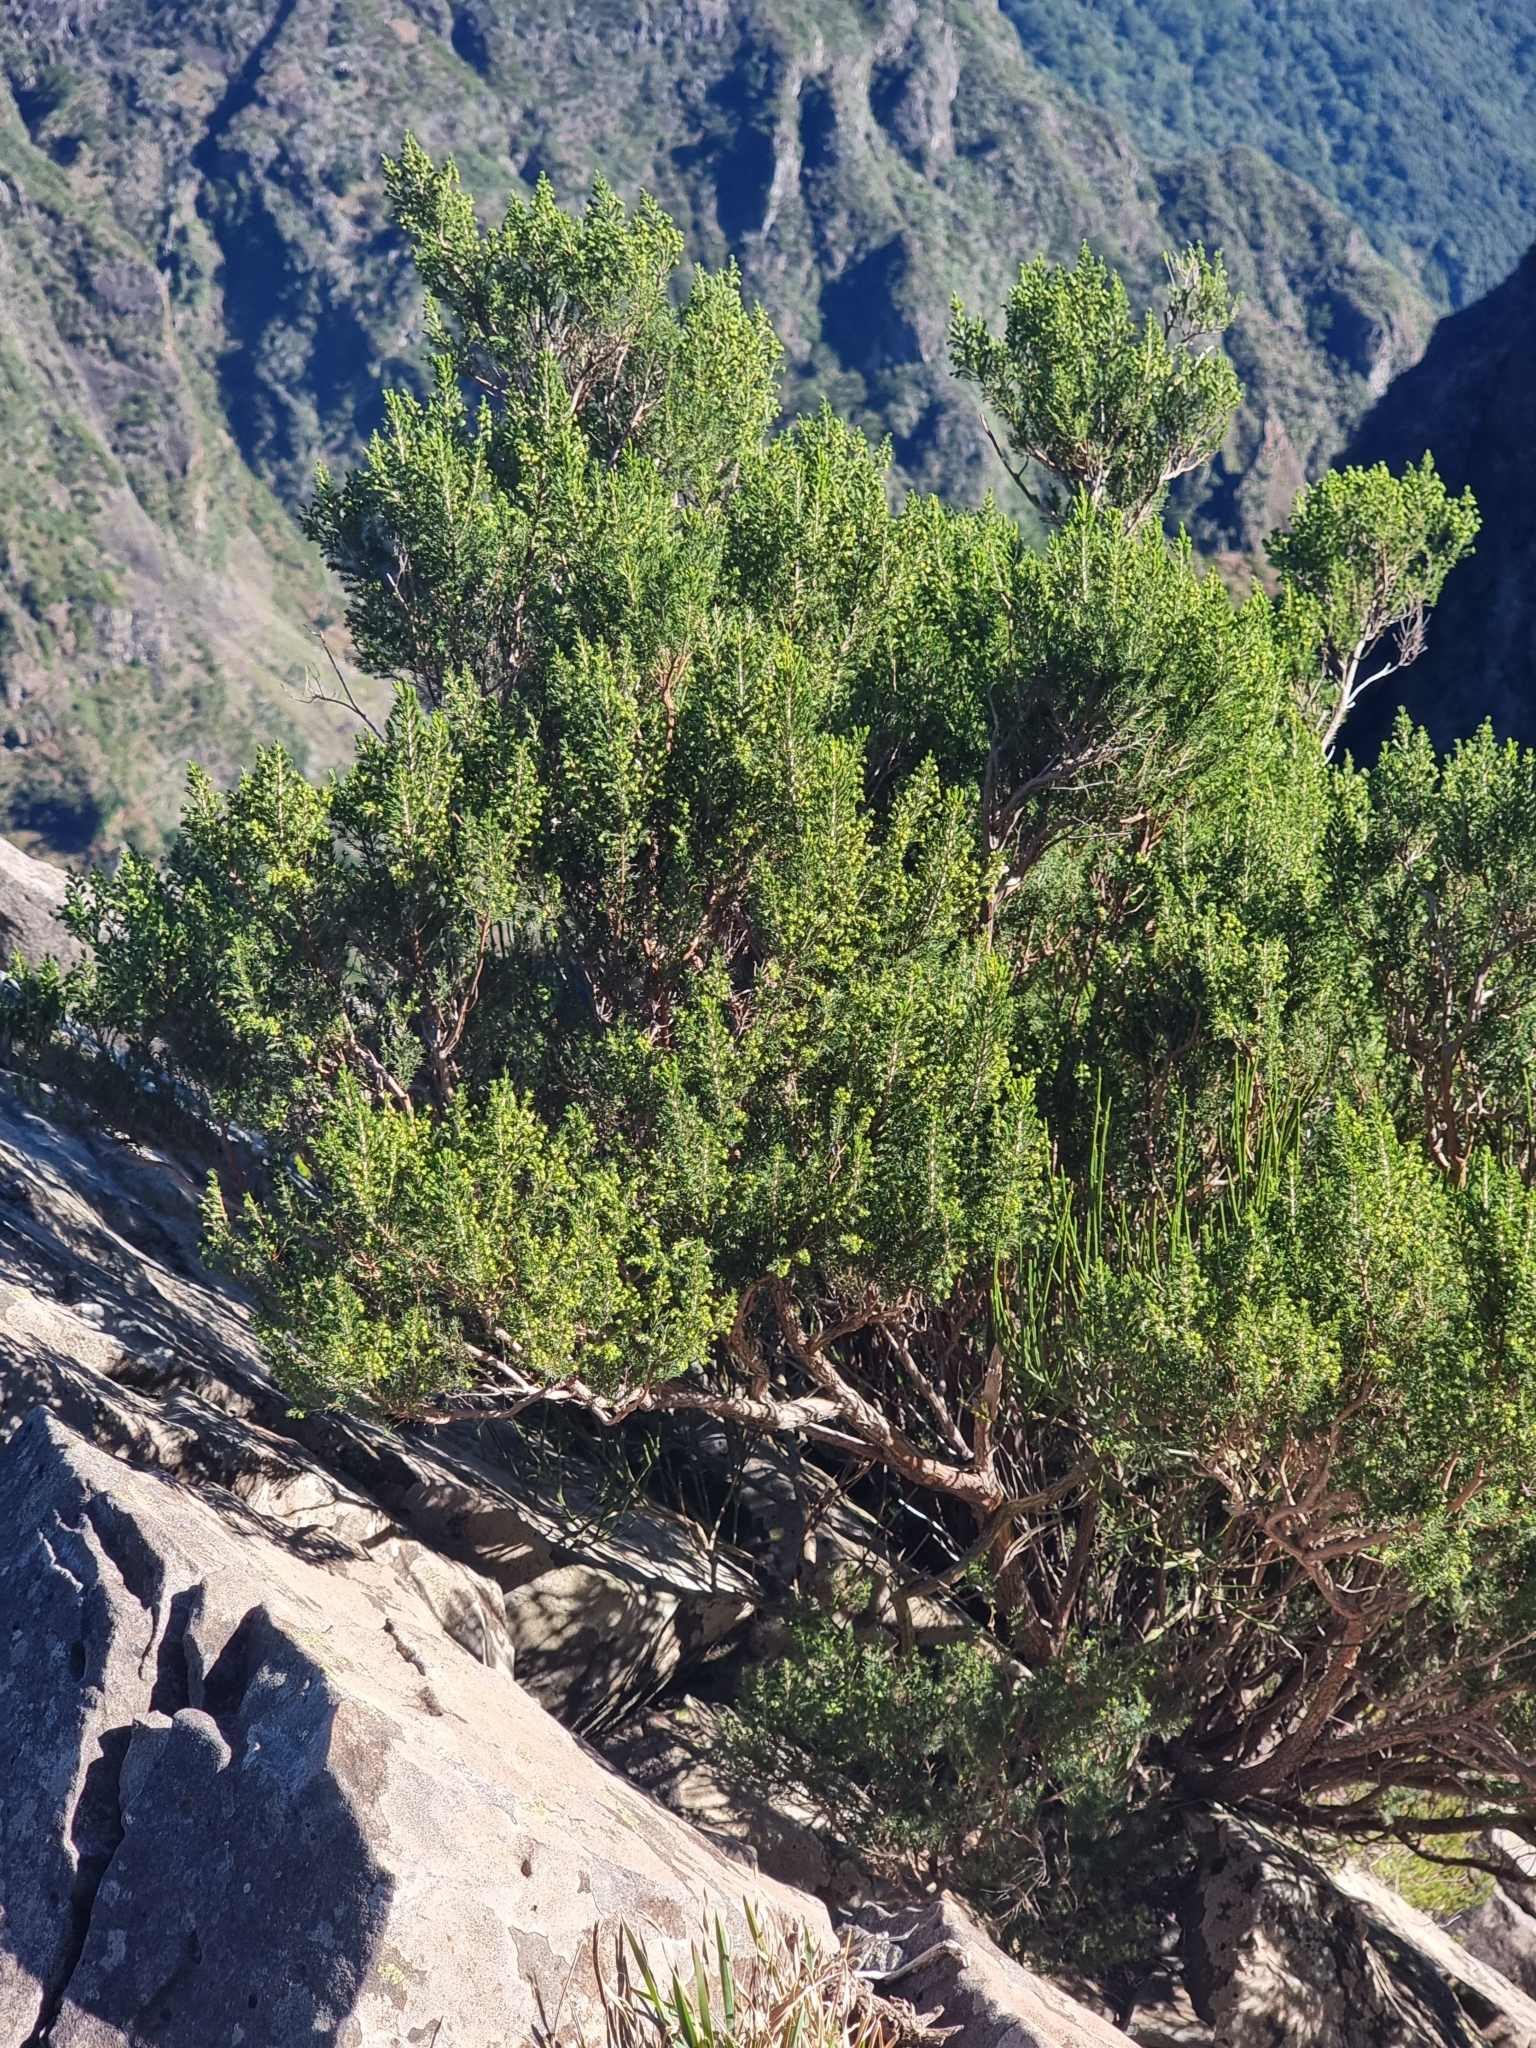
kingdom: Plantae
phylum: Tracheophyta
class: Magnoliopsida
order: Ericales
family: Ericaceae
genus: Erica
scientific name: Erica canariensis
